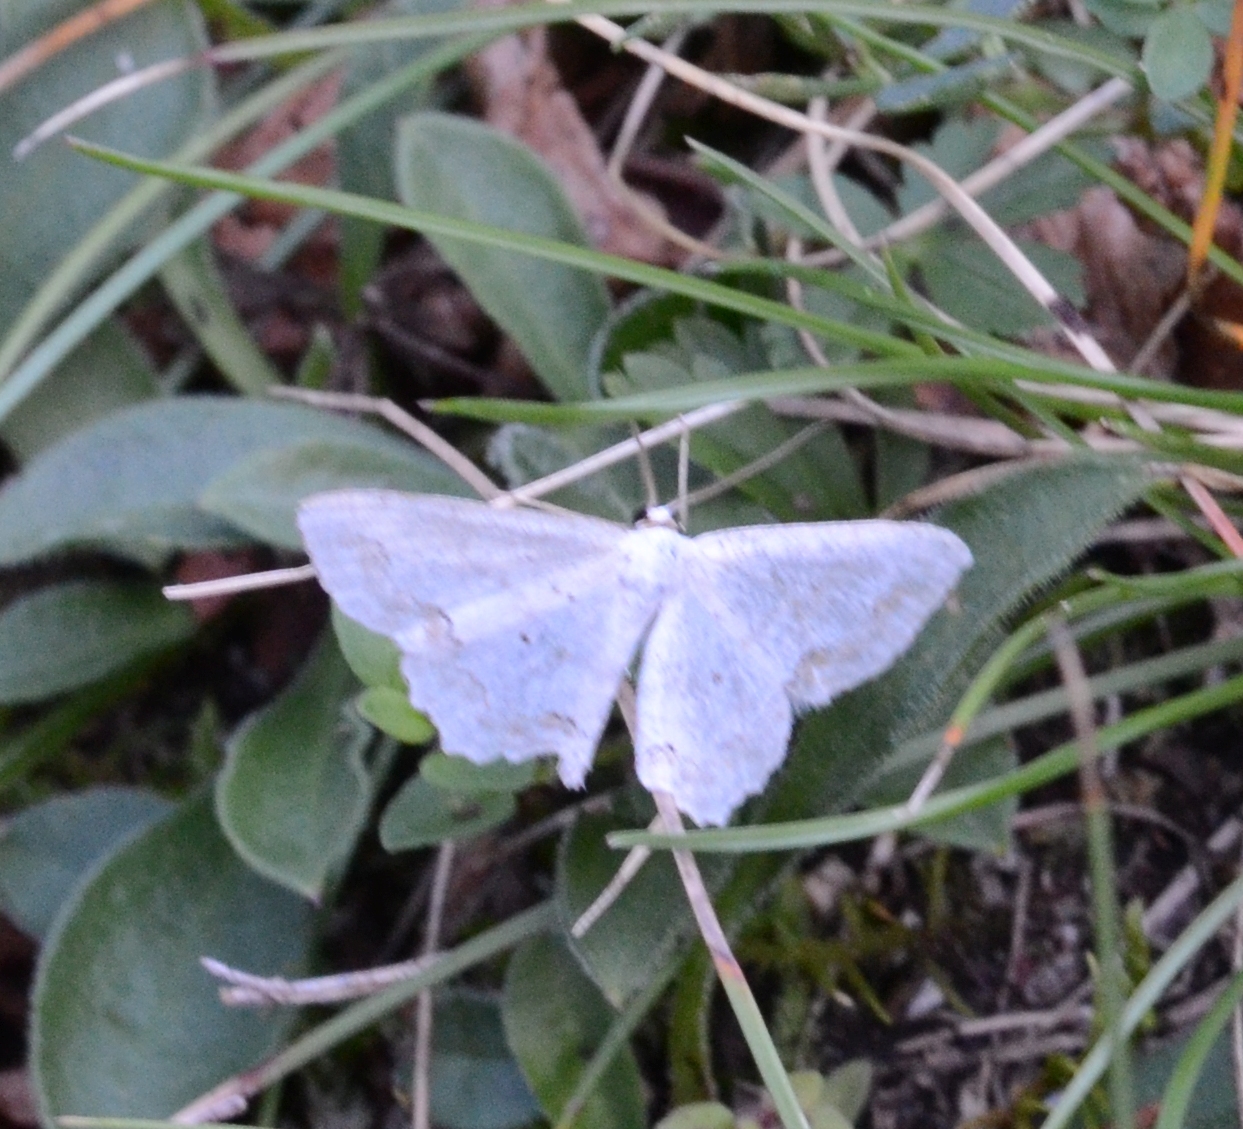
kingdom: Animalia
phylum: Arthropoda
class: Insecta
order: Lepidoptera
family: Geometridae
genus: Scopula
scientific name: Scopula ornata
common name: Lace border
